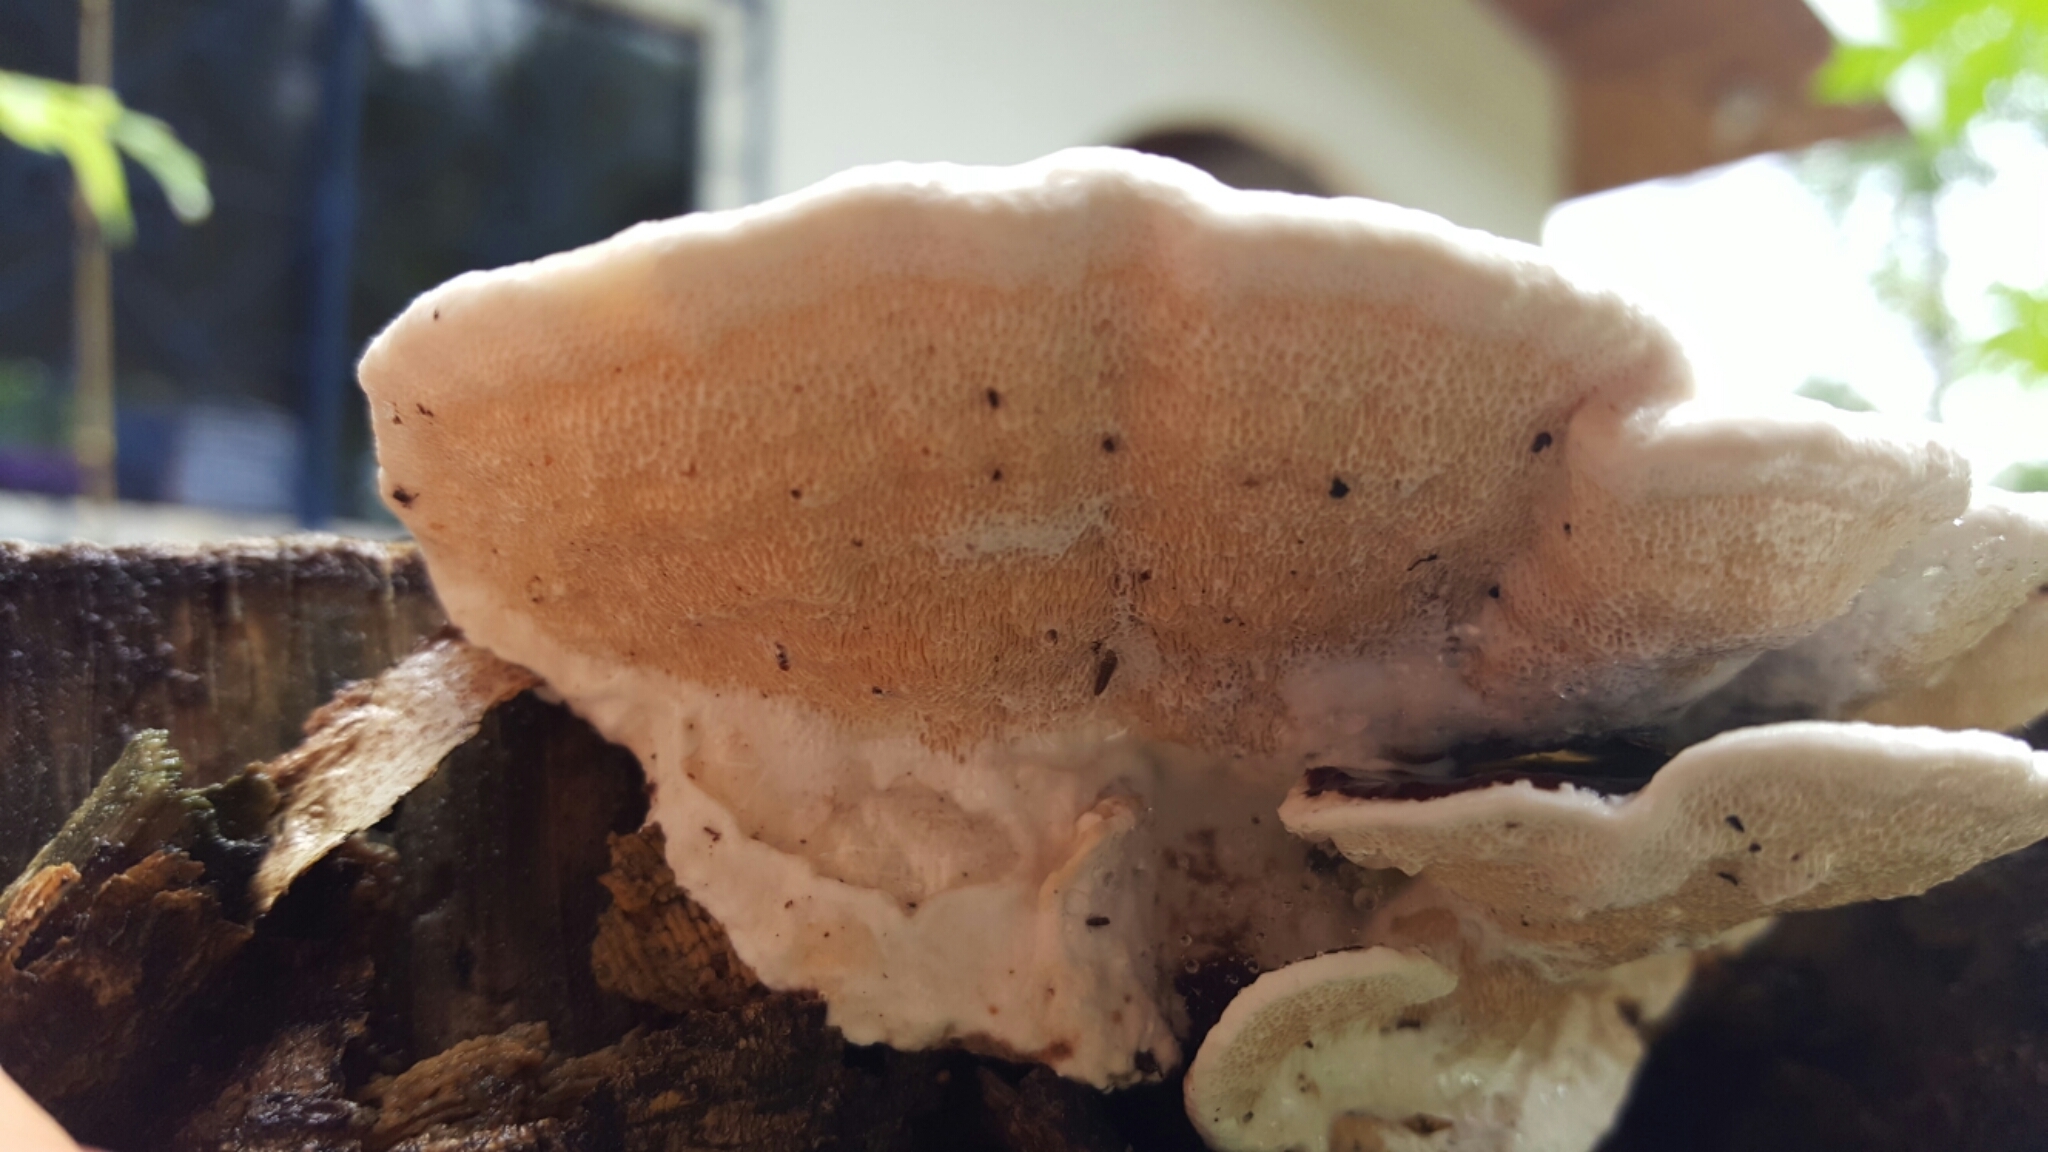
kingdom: Fungi
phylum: Basidiomycota
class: Agaricomycetes
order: Polyporales
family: Steccherinaceae
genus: Nigroporus
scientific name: Nigroporus vinosus
